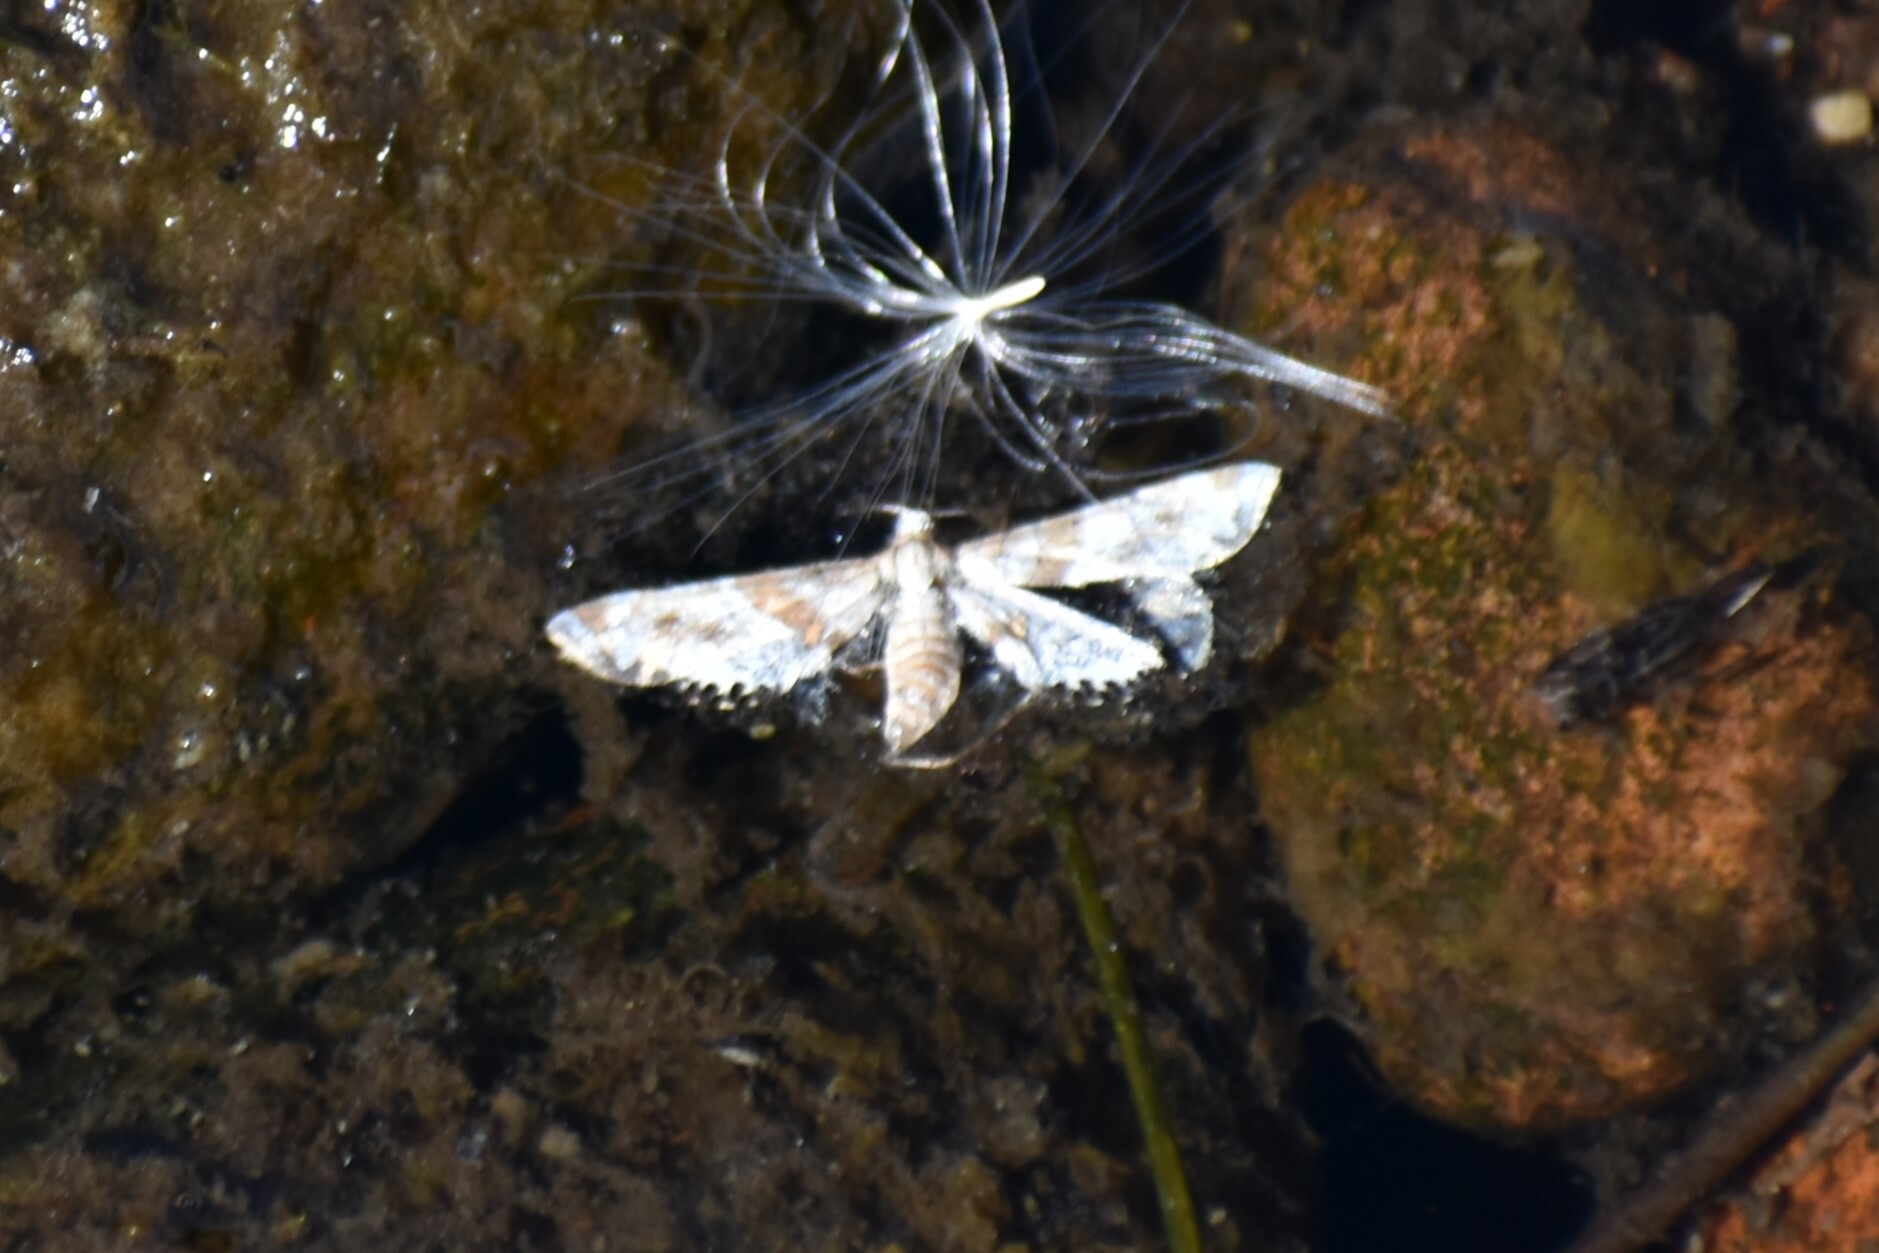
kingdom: Animalia
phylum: Arthropoda
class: Insecta
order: Lepidoptera
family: Crambidae
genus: Petrophila
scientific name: Petrophila jaliscalis
